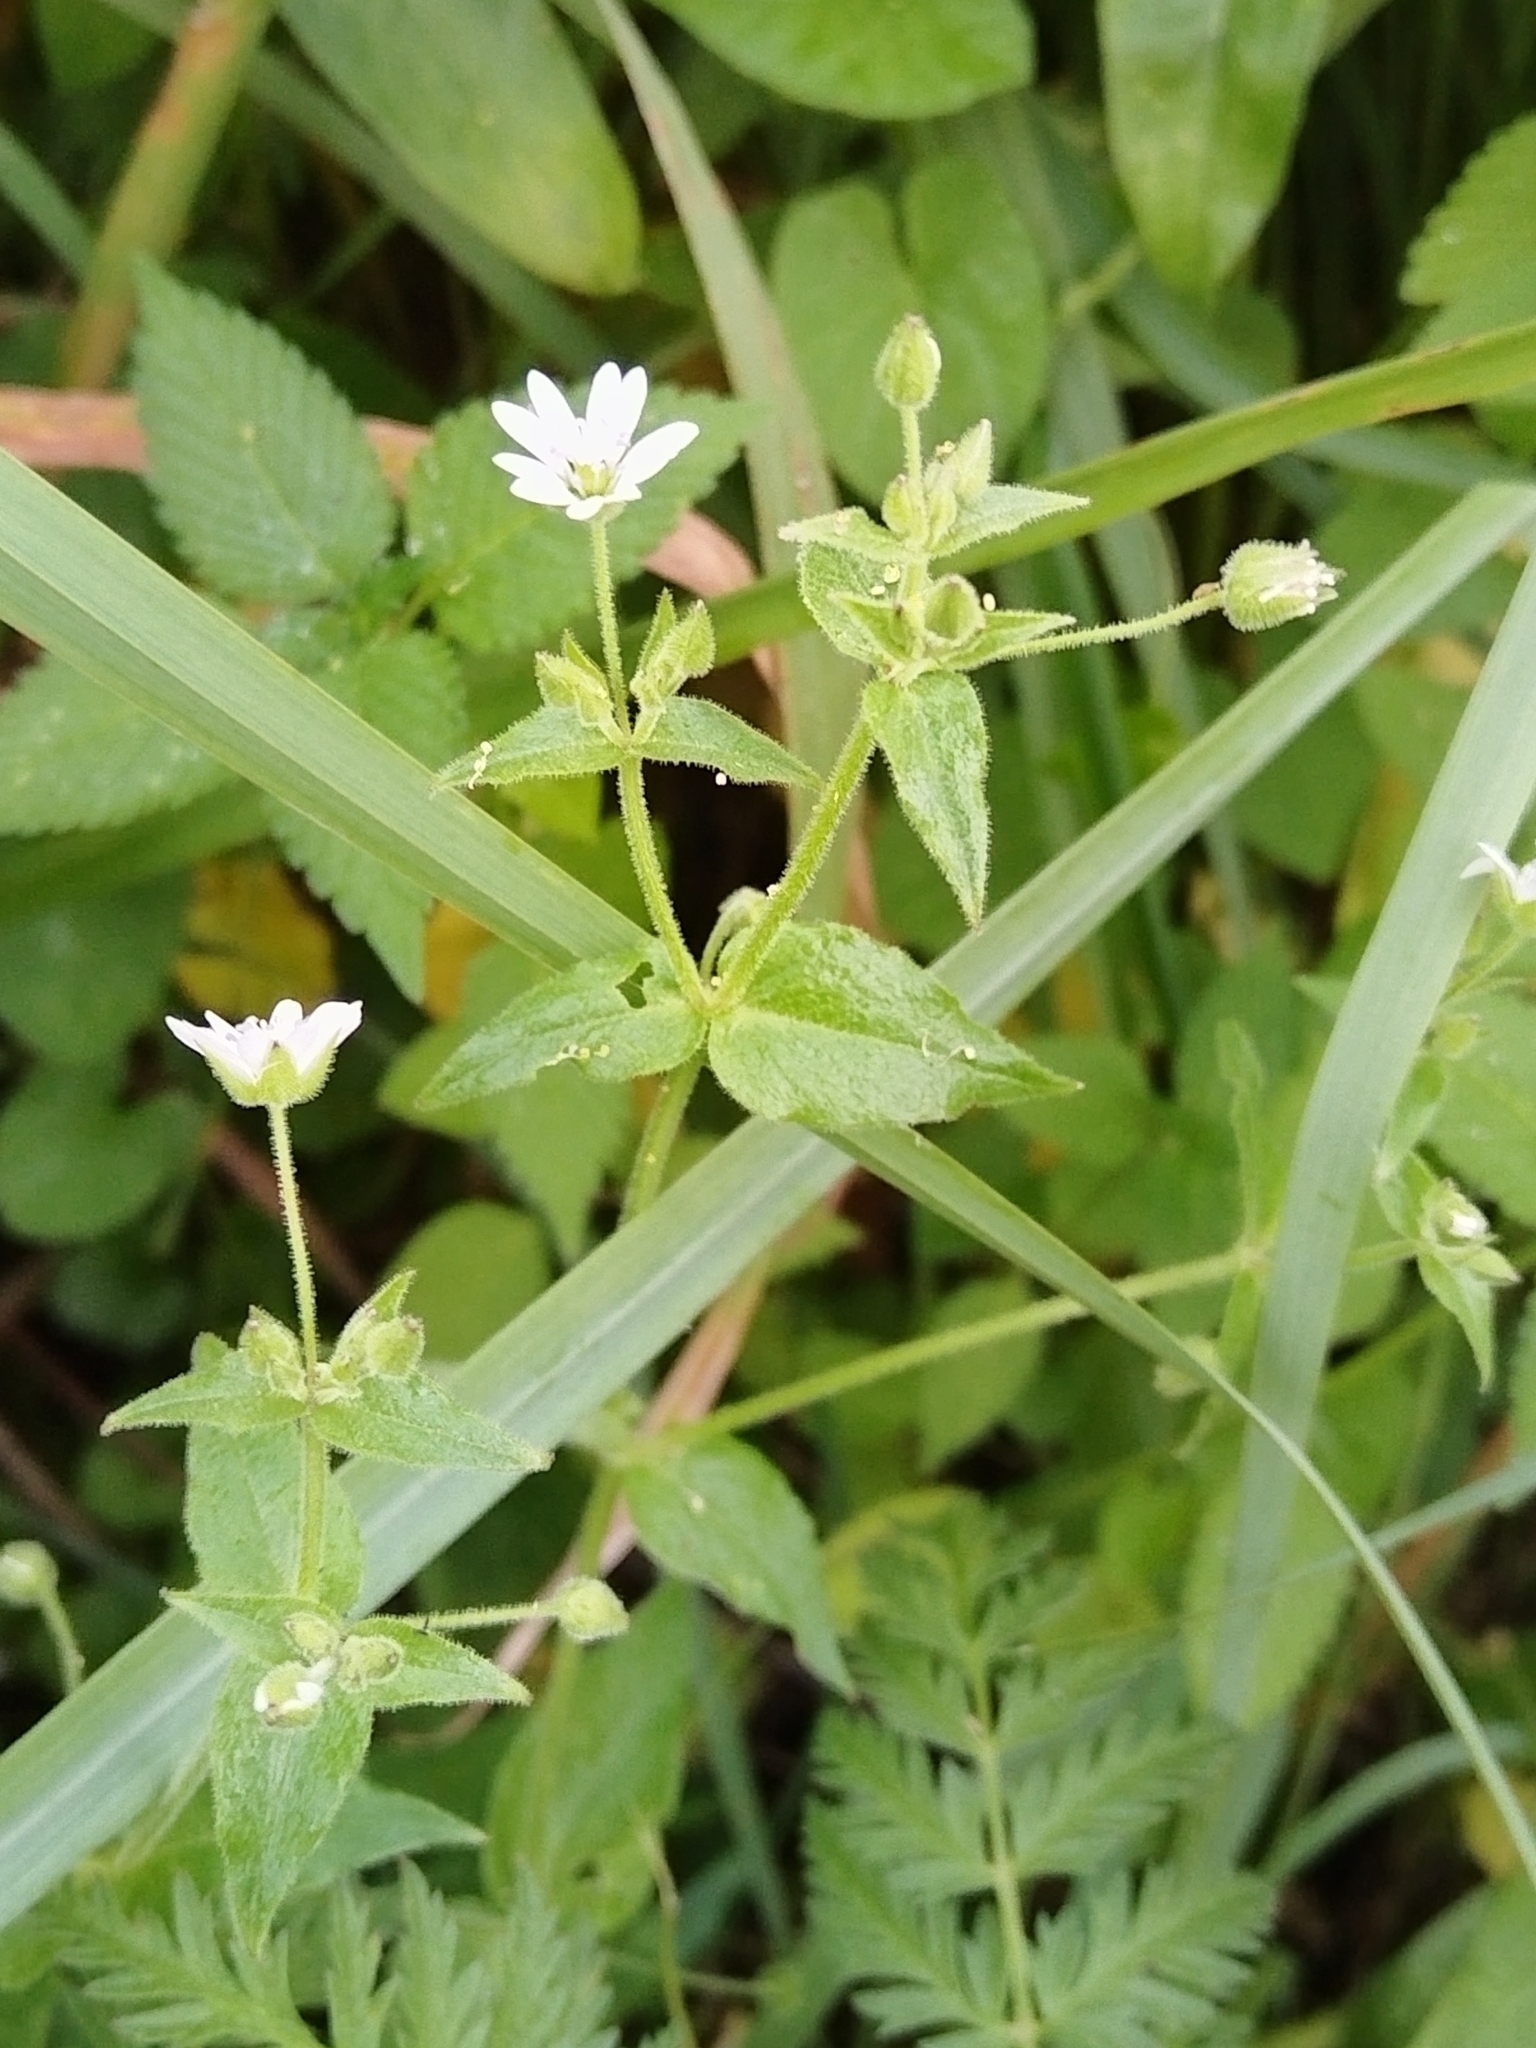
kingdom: Plantae
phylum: Tracheophyta
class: Magnoliopsida
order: Caryophyllales
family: Caryophyllaceae
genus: Stellaria
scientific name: Stellaria aquatica
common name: Water chickweed
